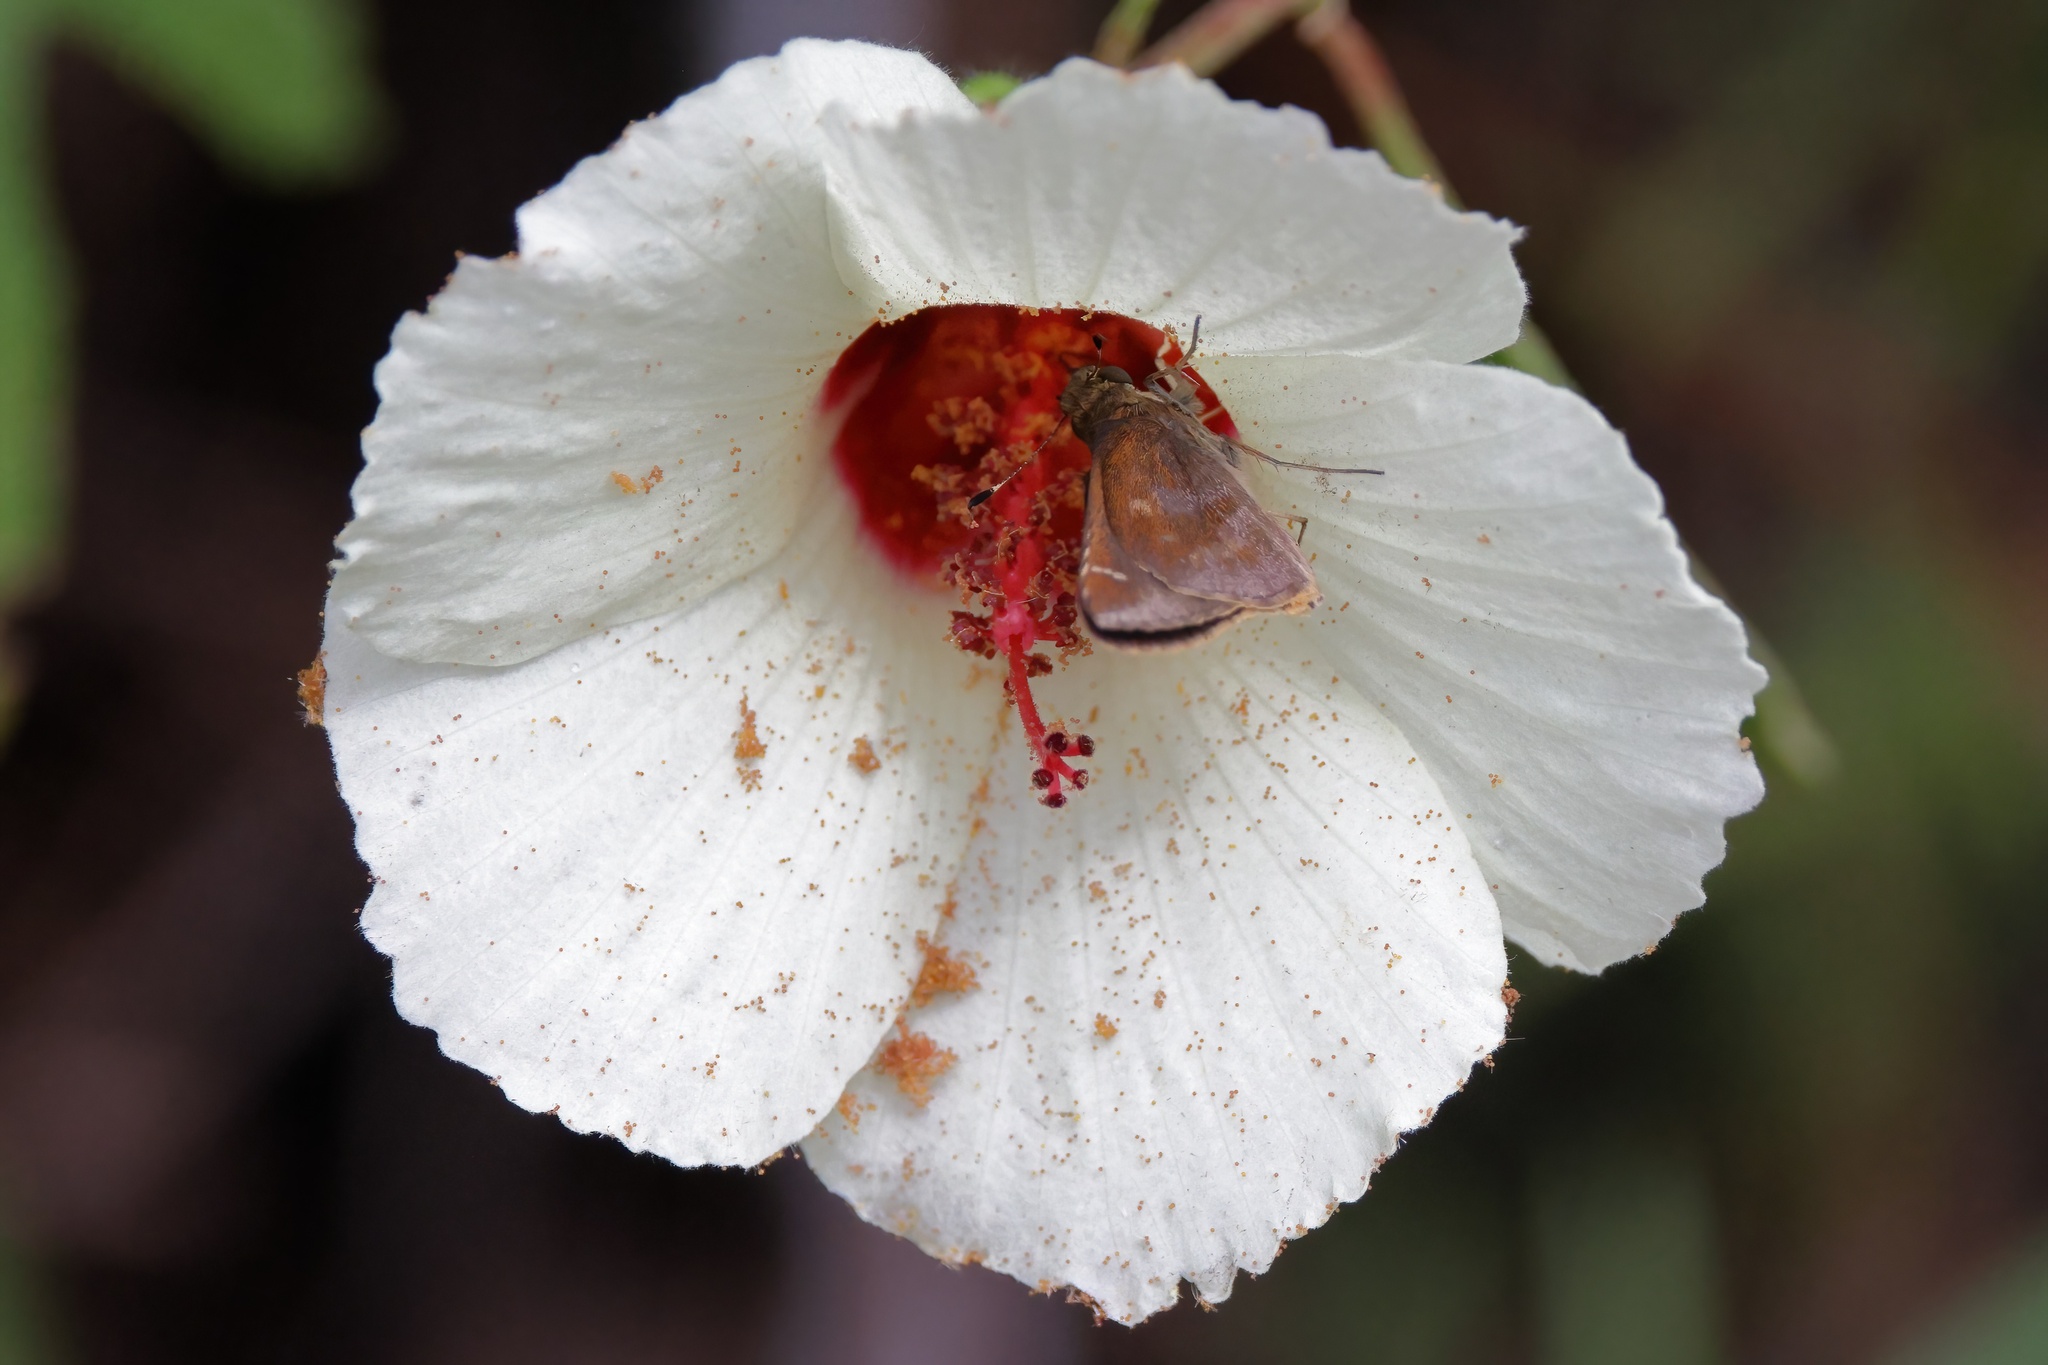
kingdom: Animalia
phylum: Arthropoda
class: Insecta
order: Lepidoptera
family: Hesperiidae
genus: Lerema
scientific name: Lerema accius
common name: Clouded skipper
